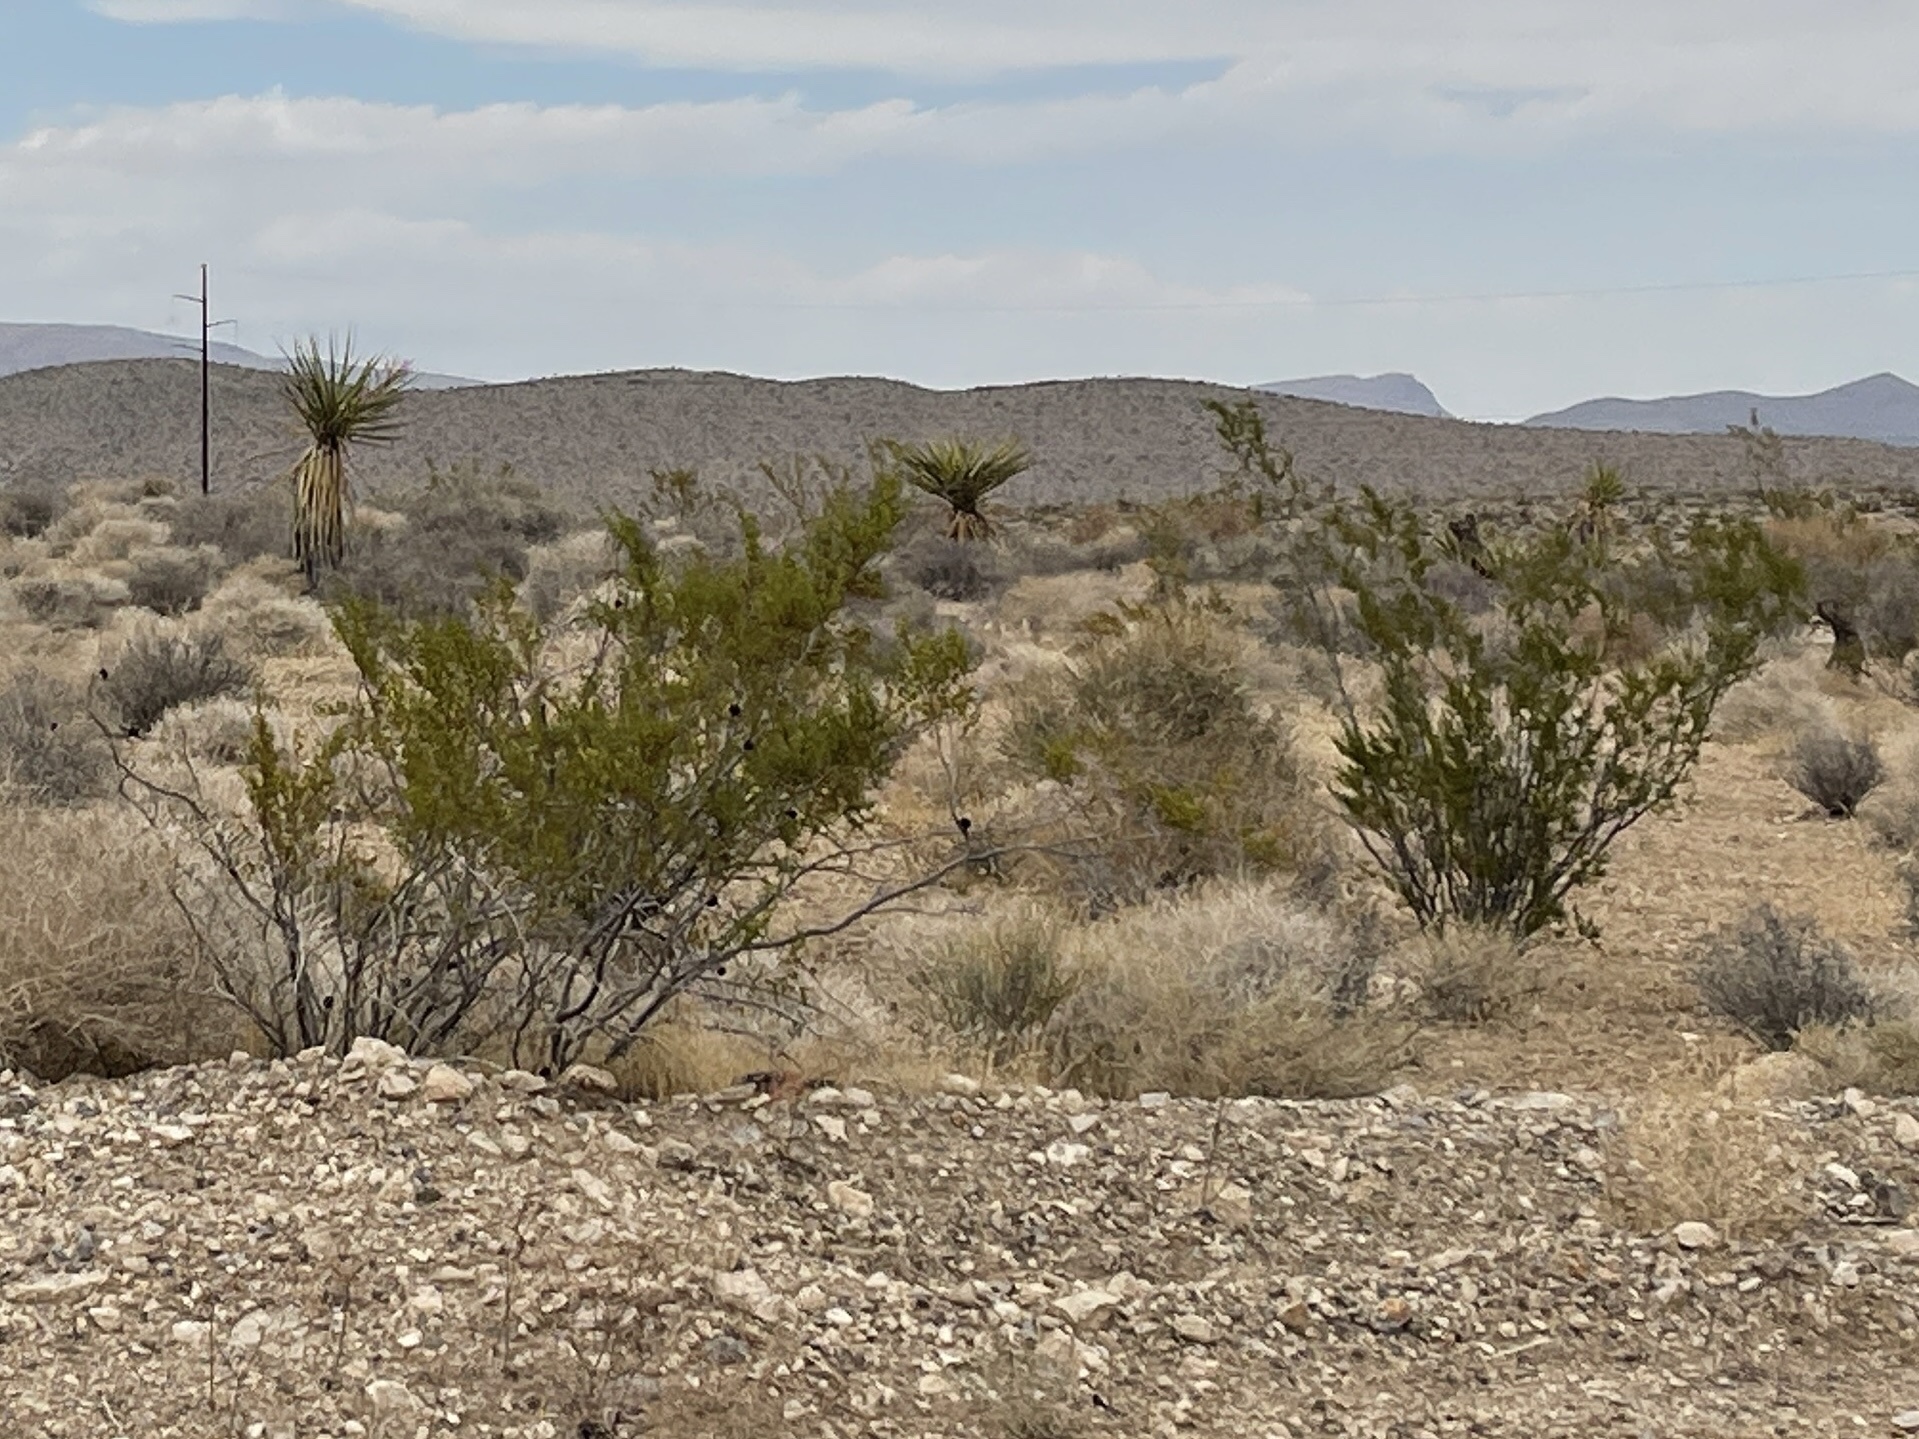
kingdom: Plantae
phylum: Tracheophyta
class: Magnoliopsida
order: Zygophyllales
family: Zygophyllaceae
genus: Larrea
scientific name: Larrea tridentata
